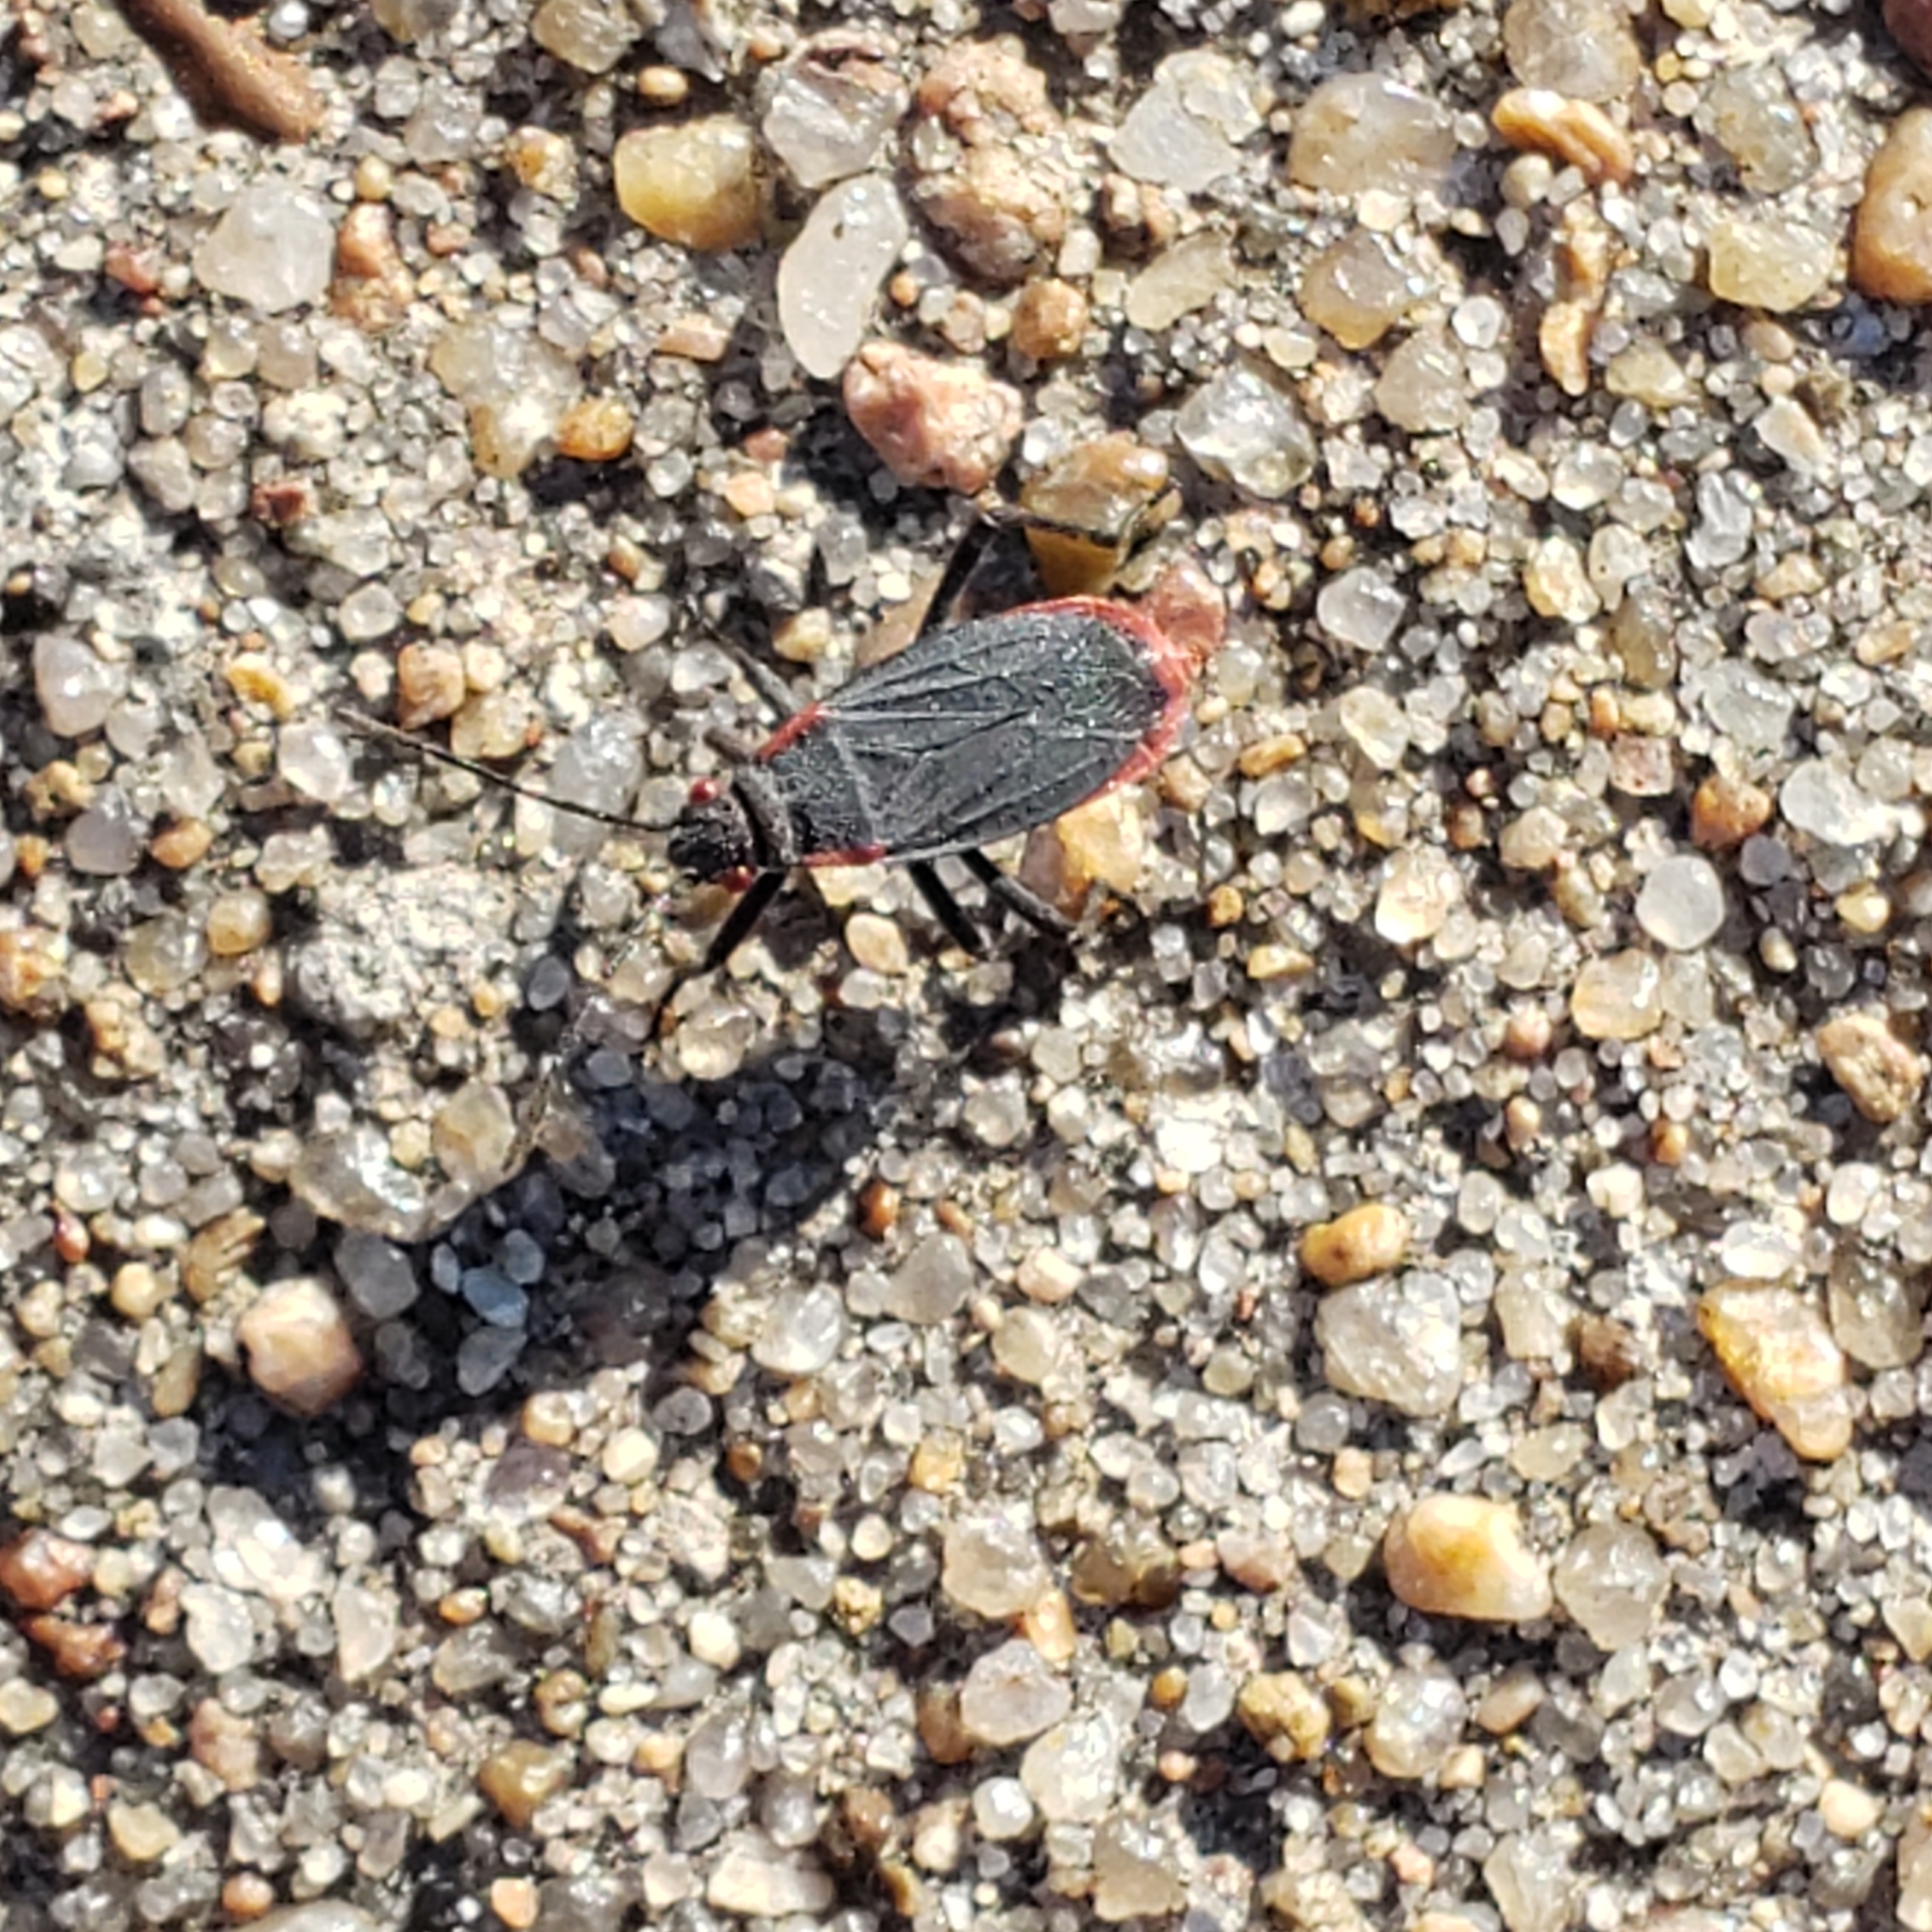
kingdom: Animalia
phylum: Arthropoda
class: Insecta
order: Hemiptera
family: Rhopalidae
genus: Jadera
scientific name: Jadera haematoloma
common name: Red-shouldered bug
